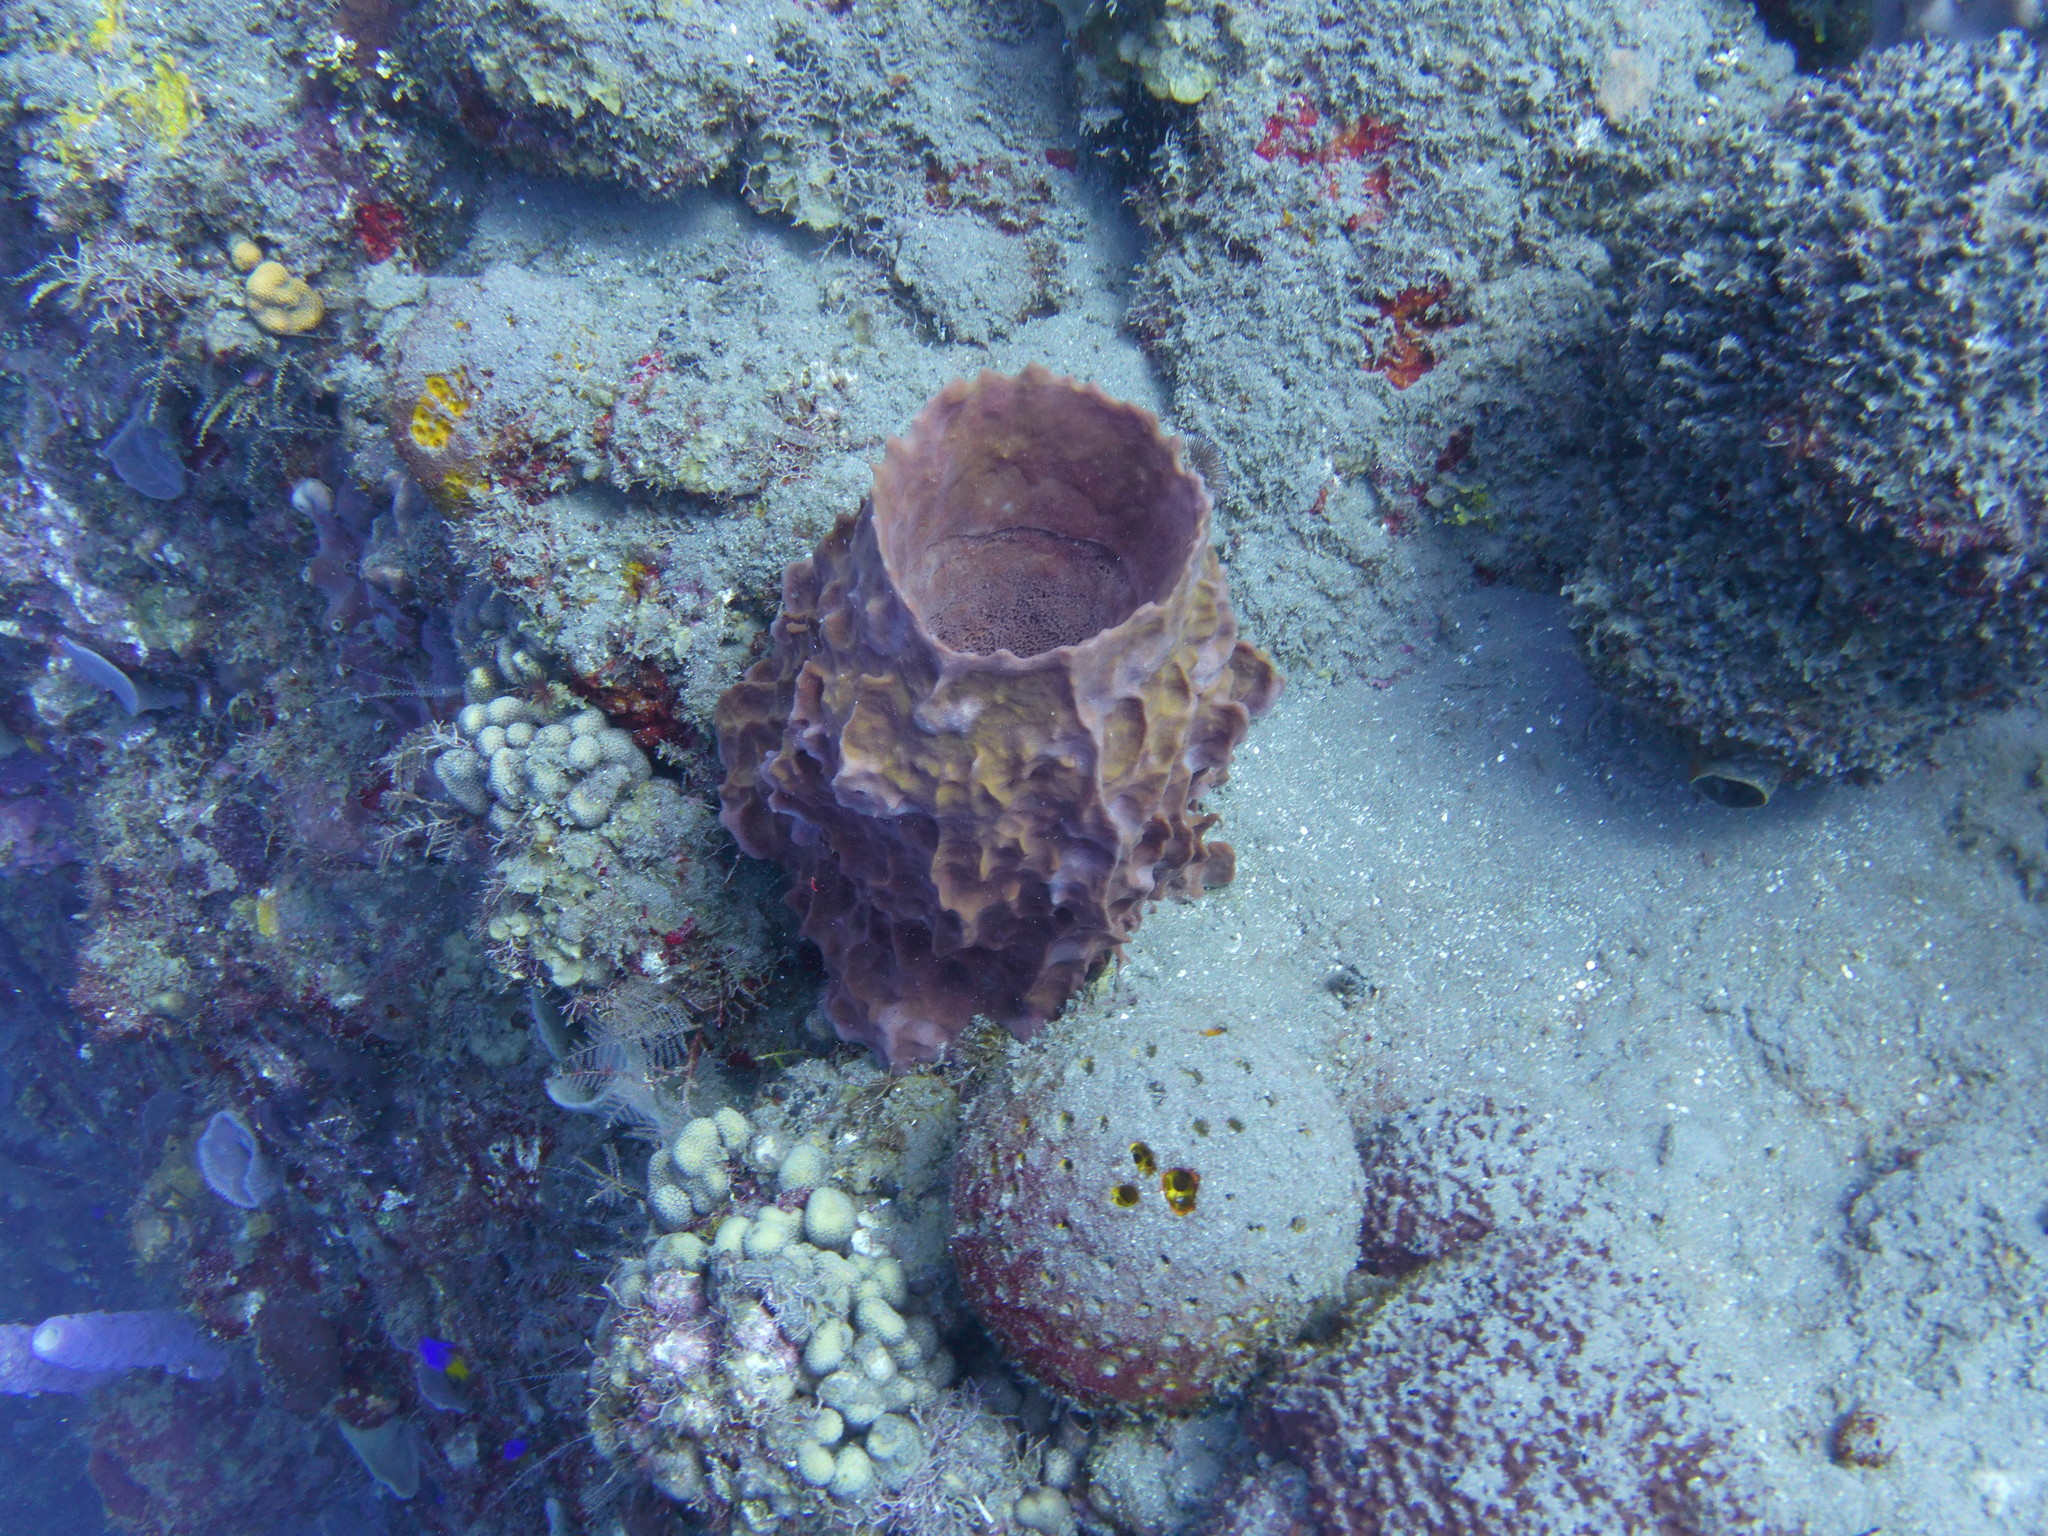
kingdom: Animalia
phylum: Porifera
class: Demospongiae
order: Haplosclerida
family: Petrosiidae
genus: Xestospongia
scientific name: Xestospongia muta
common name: Giant barrel sponge
